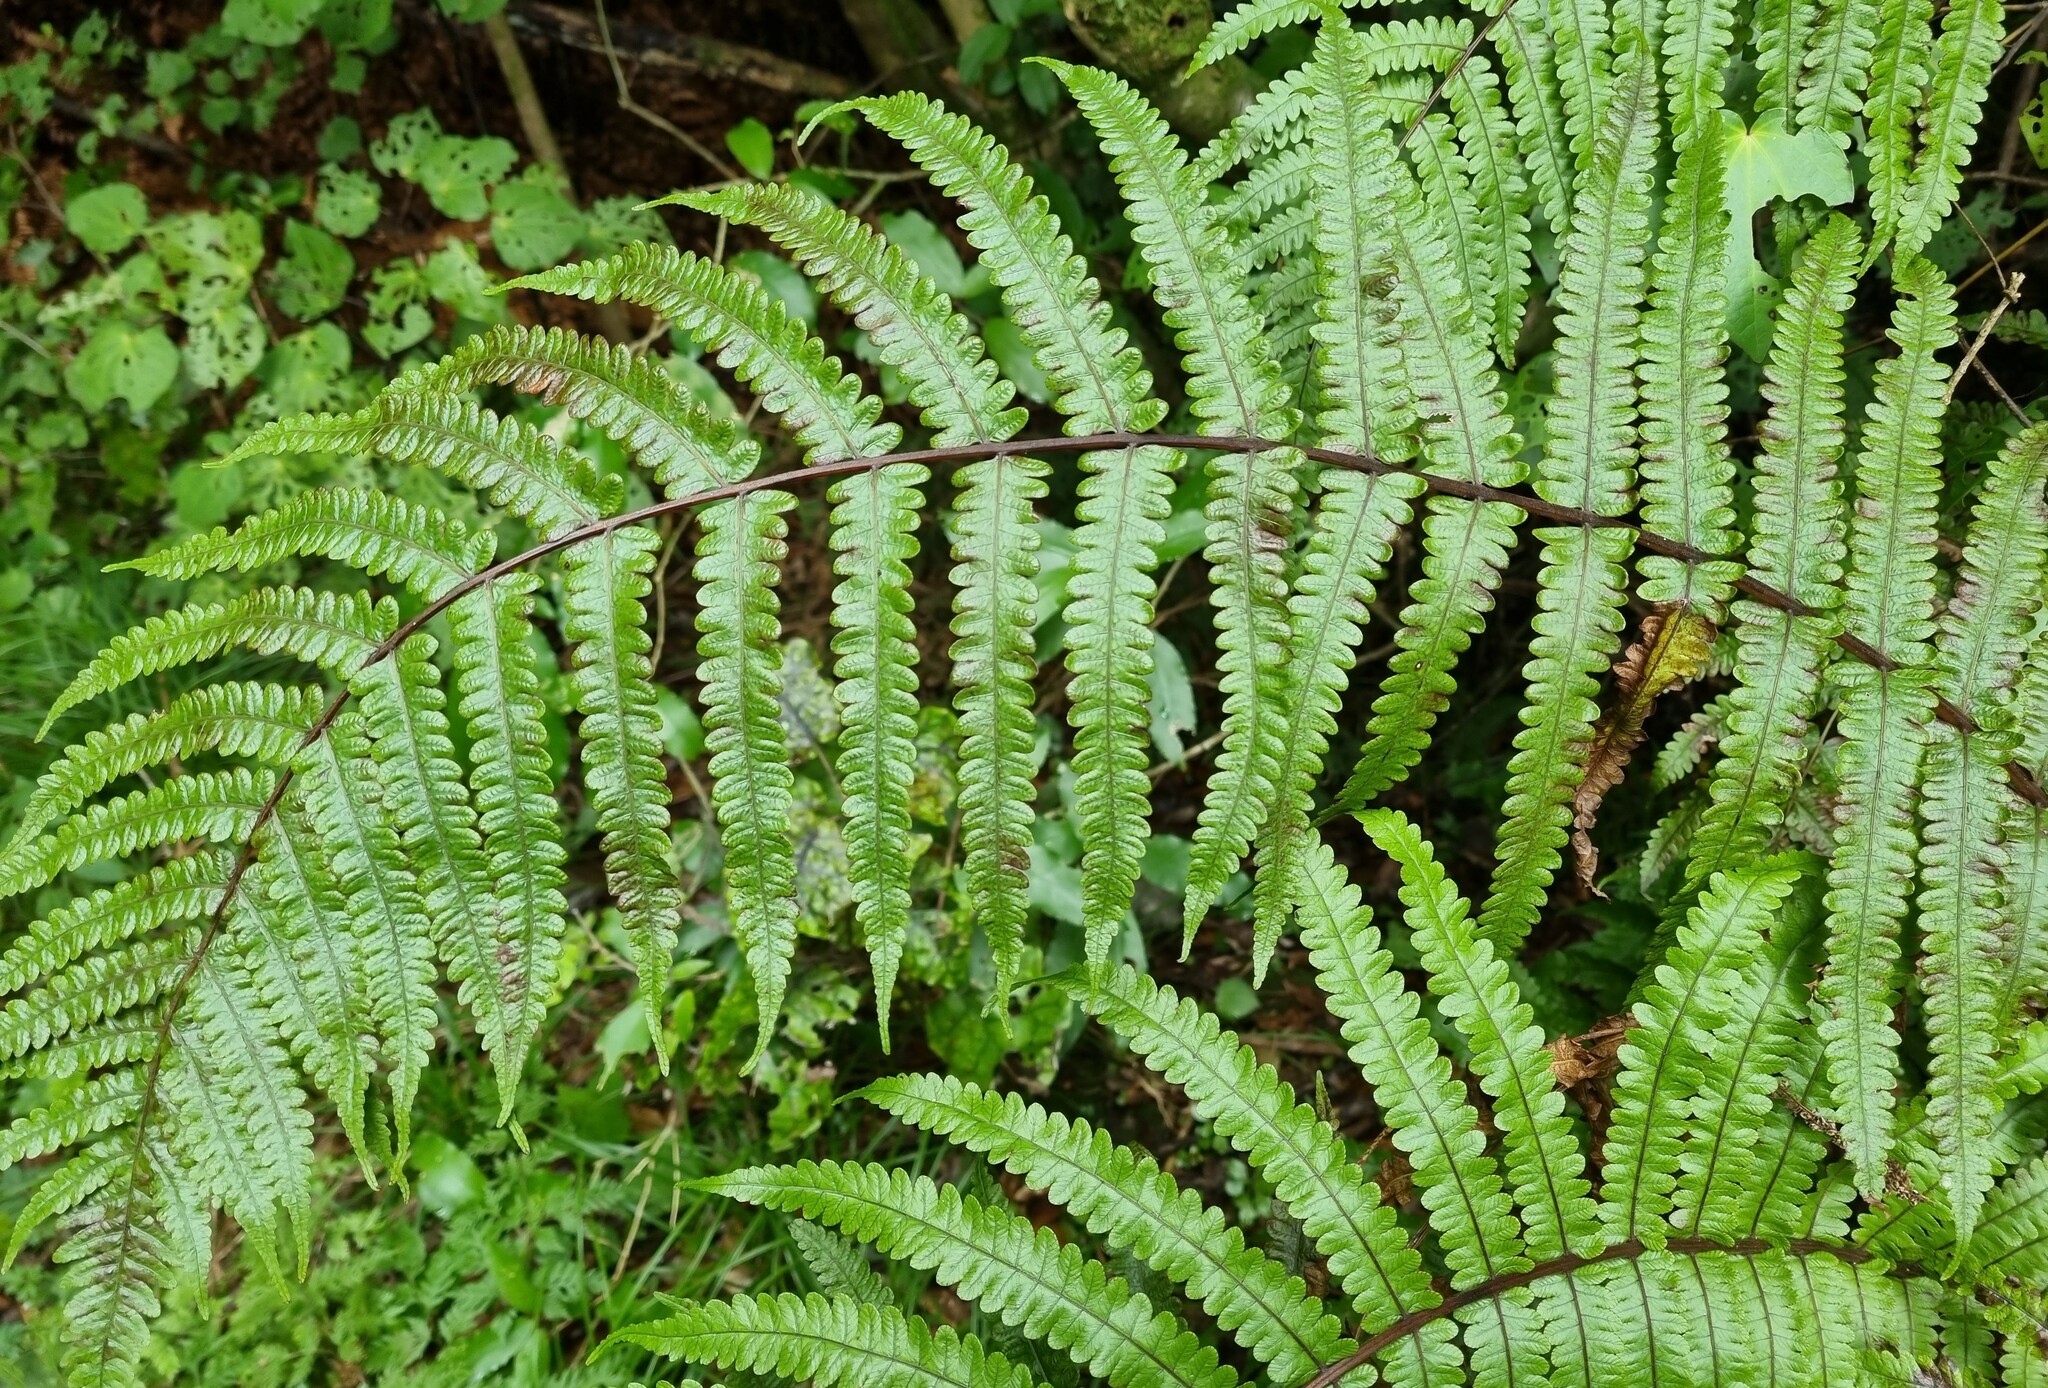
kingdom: Plantae
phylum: Tracheophyta
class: Polypodiopsida
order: Polypodiales
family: Thelypteridaceae
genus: Pakau
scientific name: Pakau pennigera
